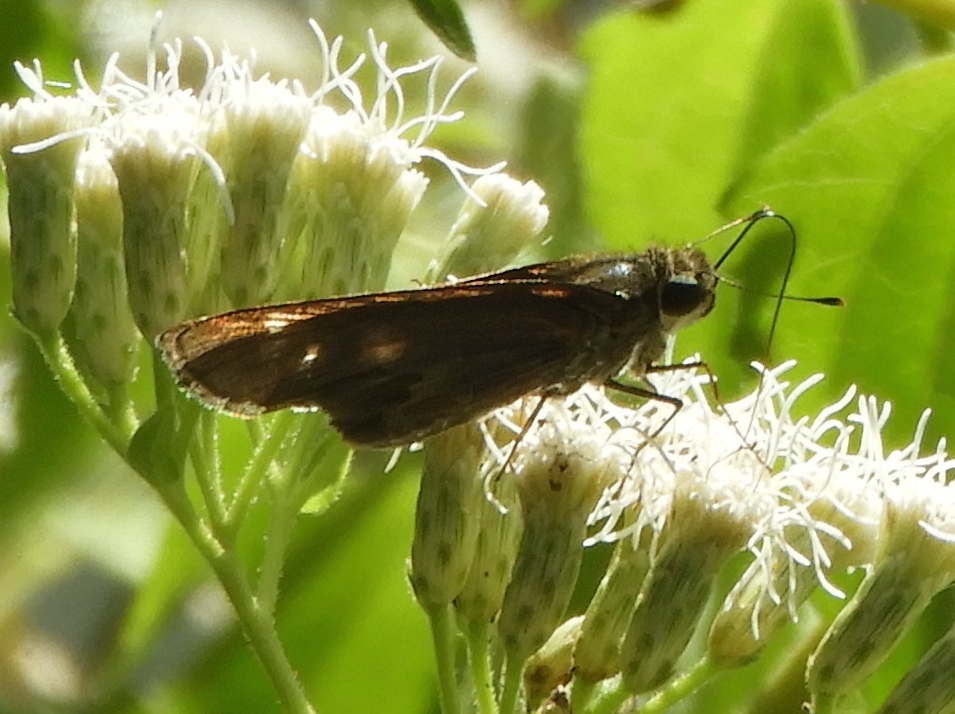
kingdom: Animalia
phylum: Arthropoda
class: Insecta
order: Lepidoptera
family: Hesperiidae
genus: Turesis
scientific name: Turesis lucas
